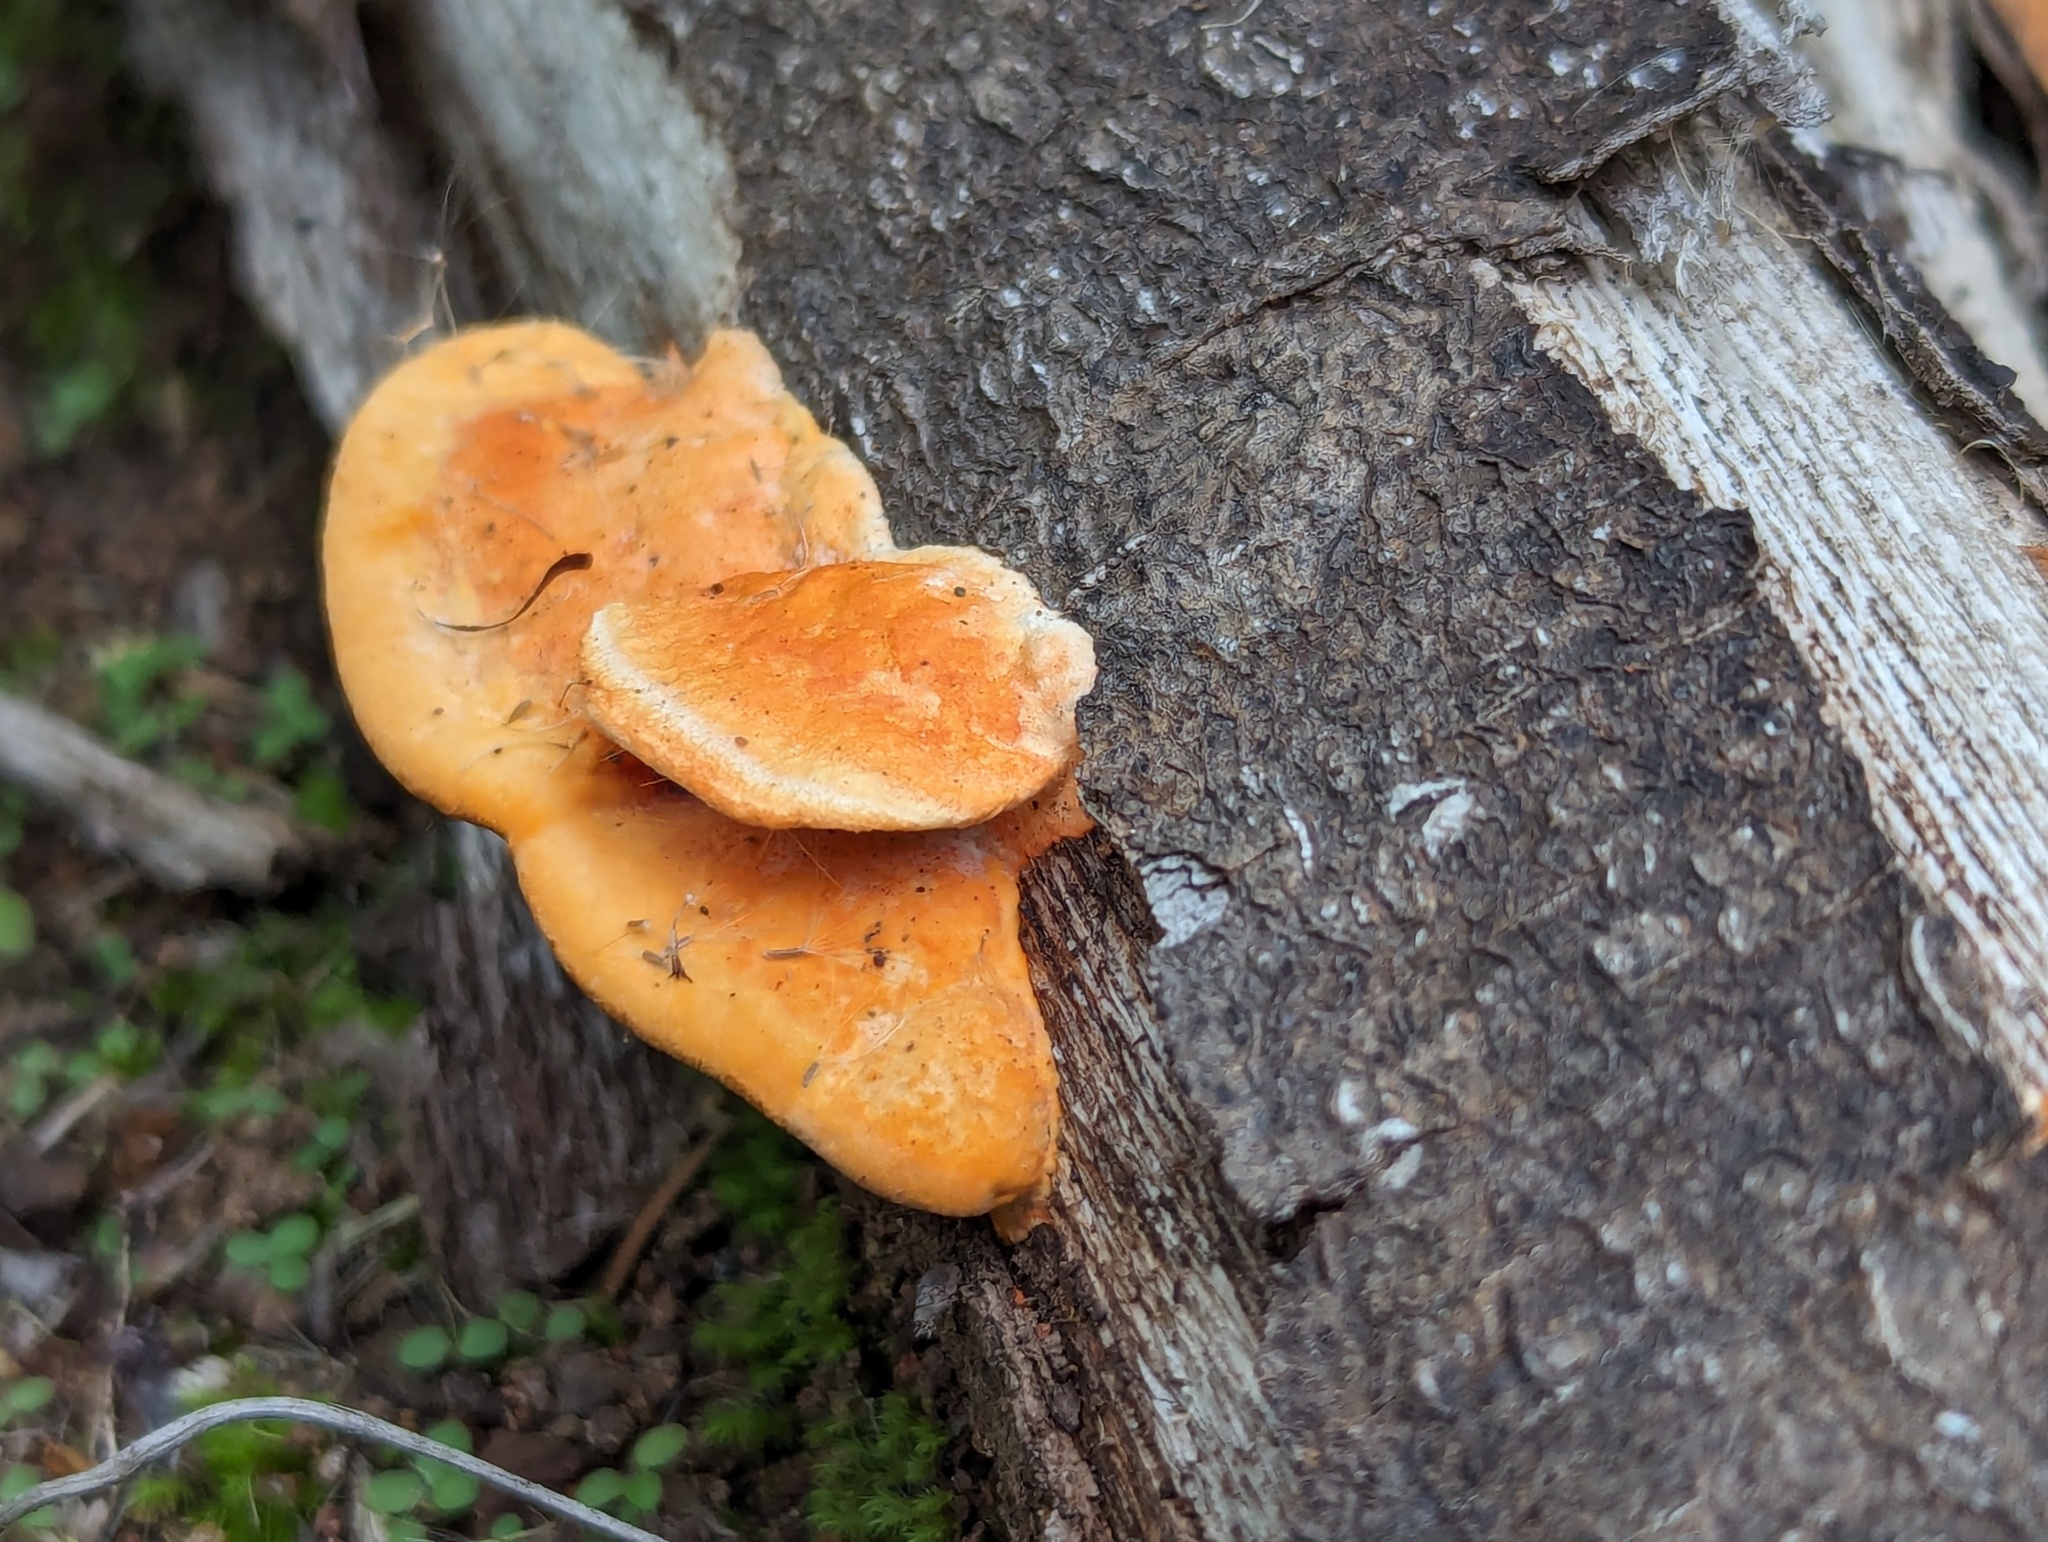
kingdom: Fungi
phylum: Basidiomycota
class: Agaricomycetes
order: Polyporales
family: Polyporaceae
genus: Trametes
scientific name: Trametes coccinea
